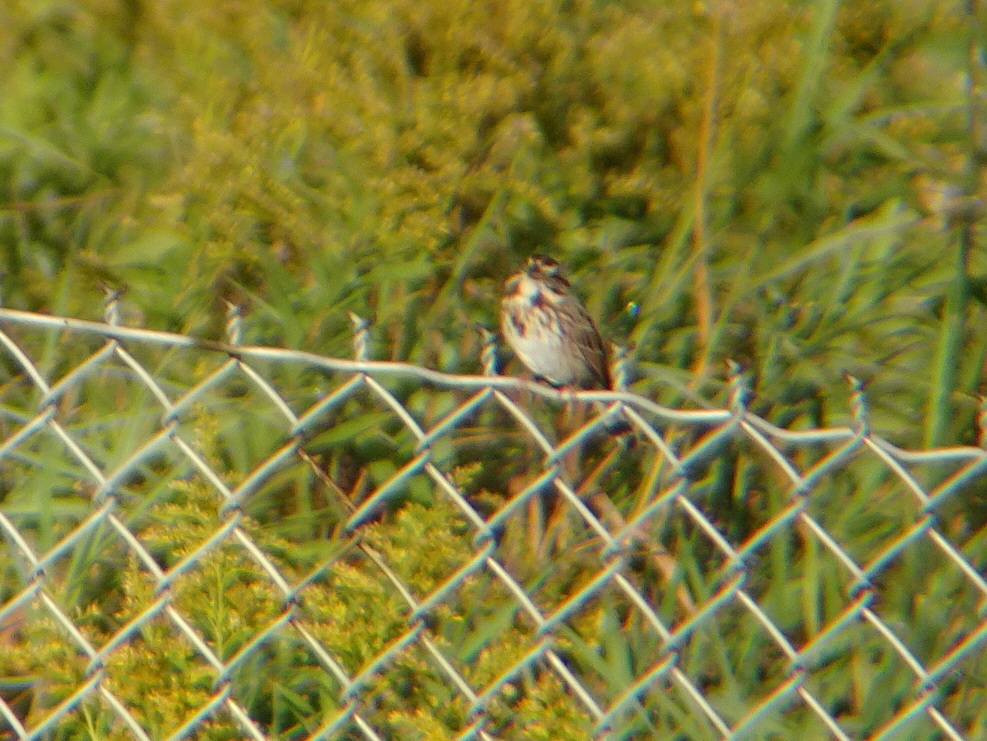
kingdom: Animalia
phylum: Chordata
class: Aves
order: Passeriformes
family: Passerellidae
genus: Melospiza
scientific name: Melospiza melodia
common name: Song sparrow
